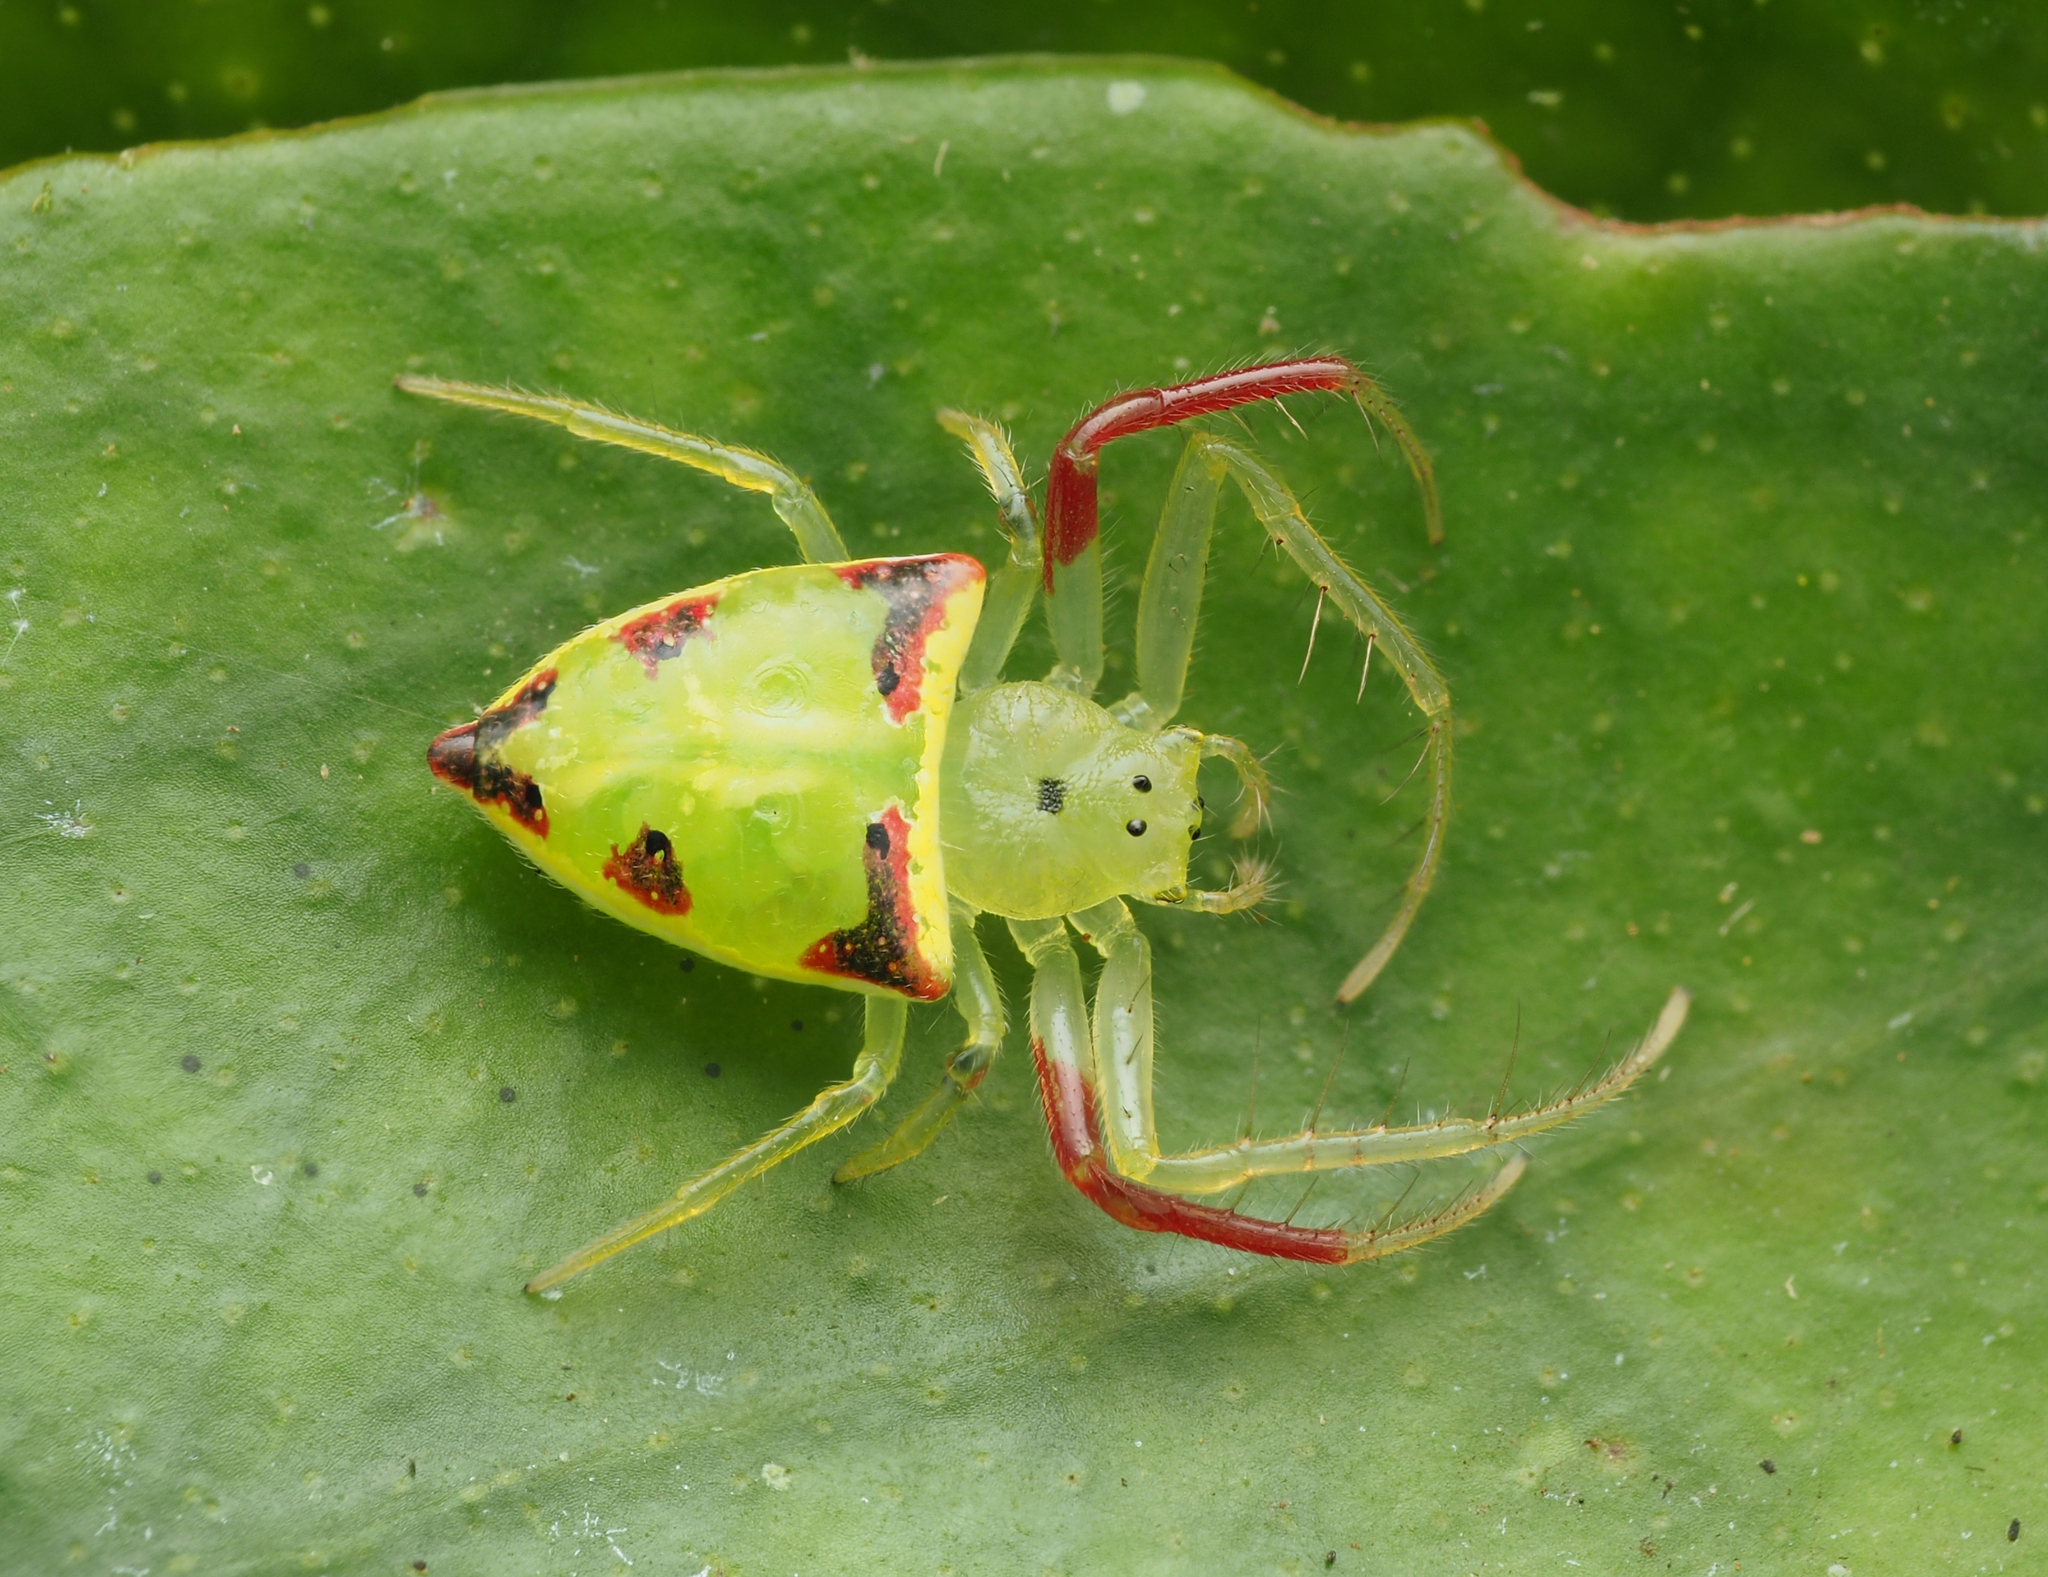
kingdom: Animalia
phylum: Arthropoda
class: Arachnida
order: Araneae
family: Arkyidae
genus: Arkys
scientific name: Arkys gracilis
